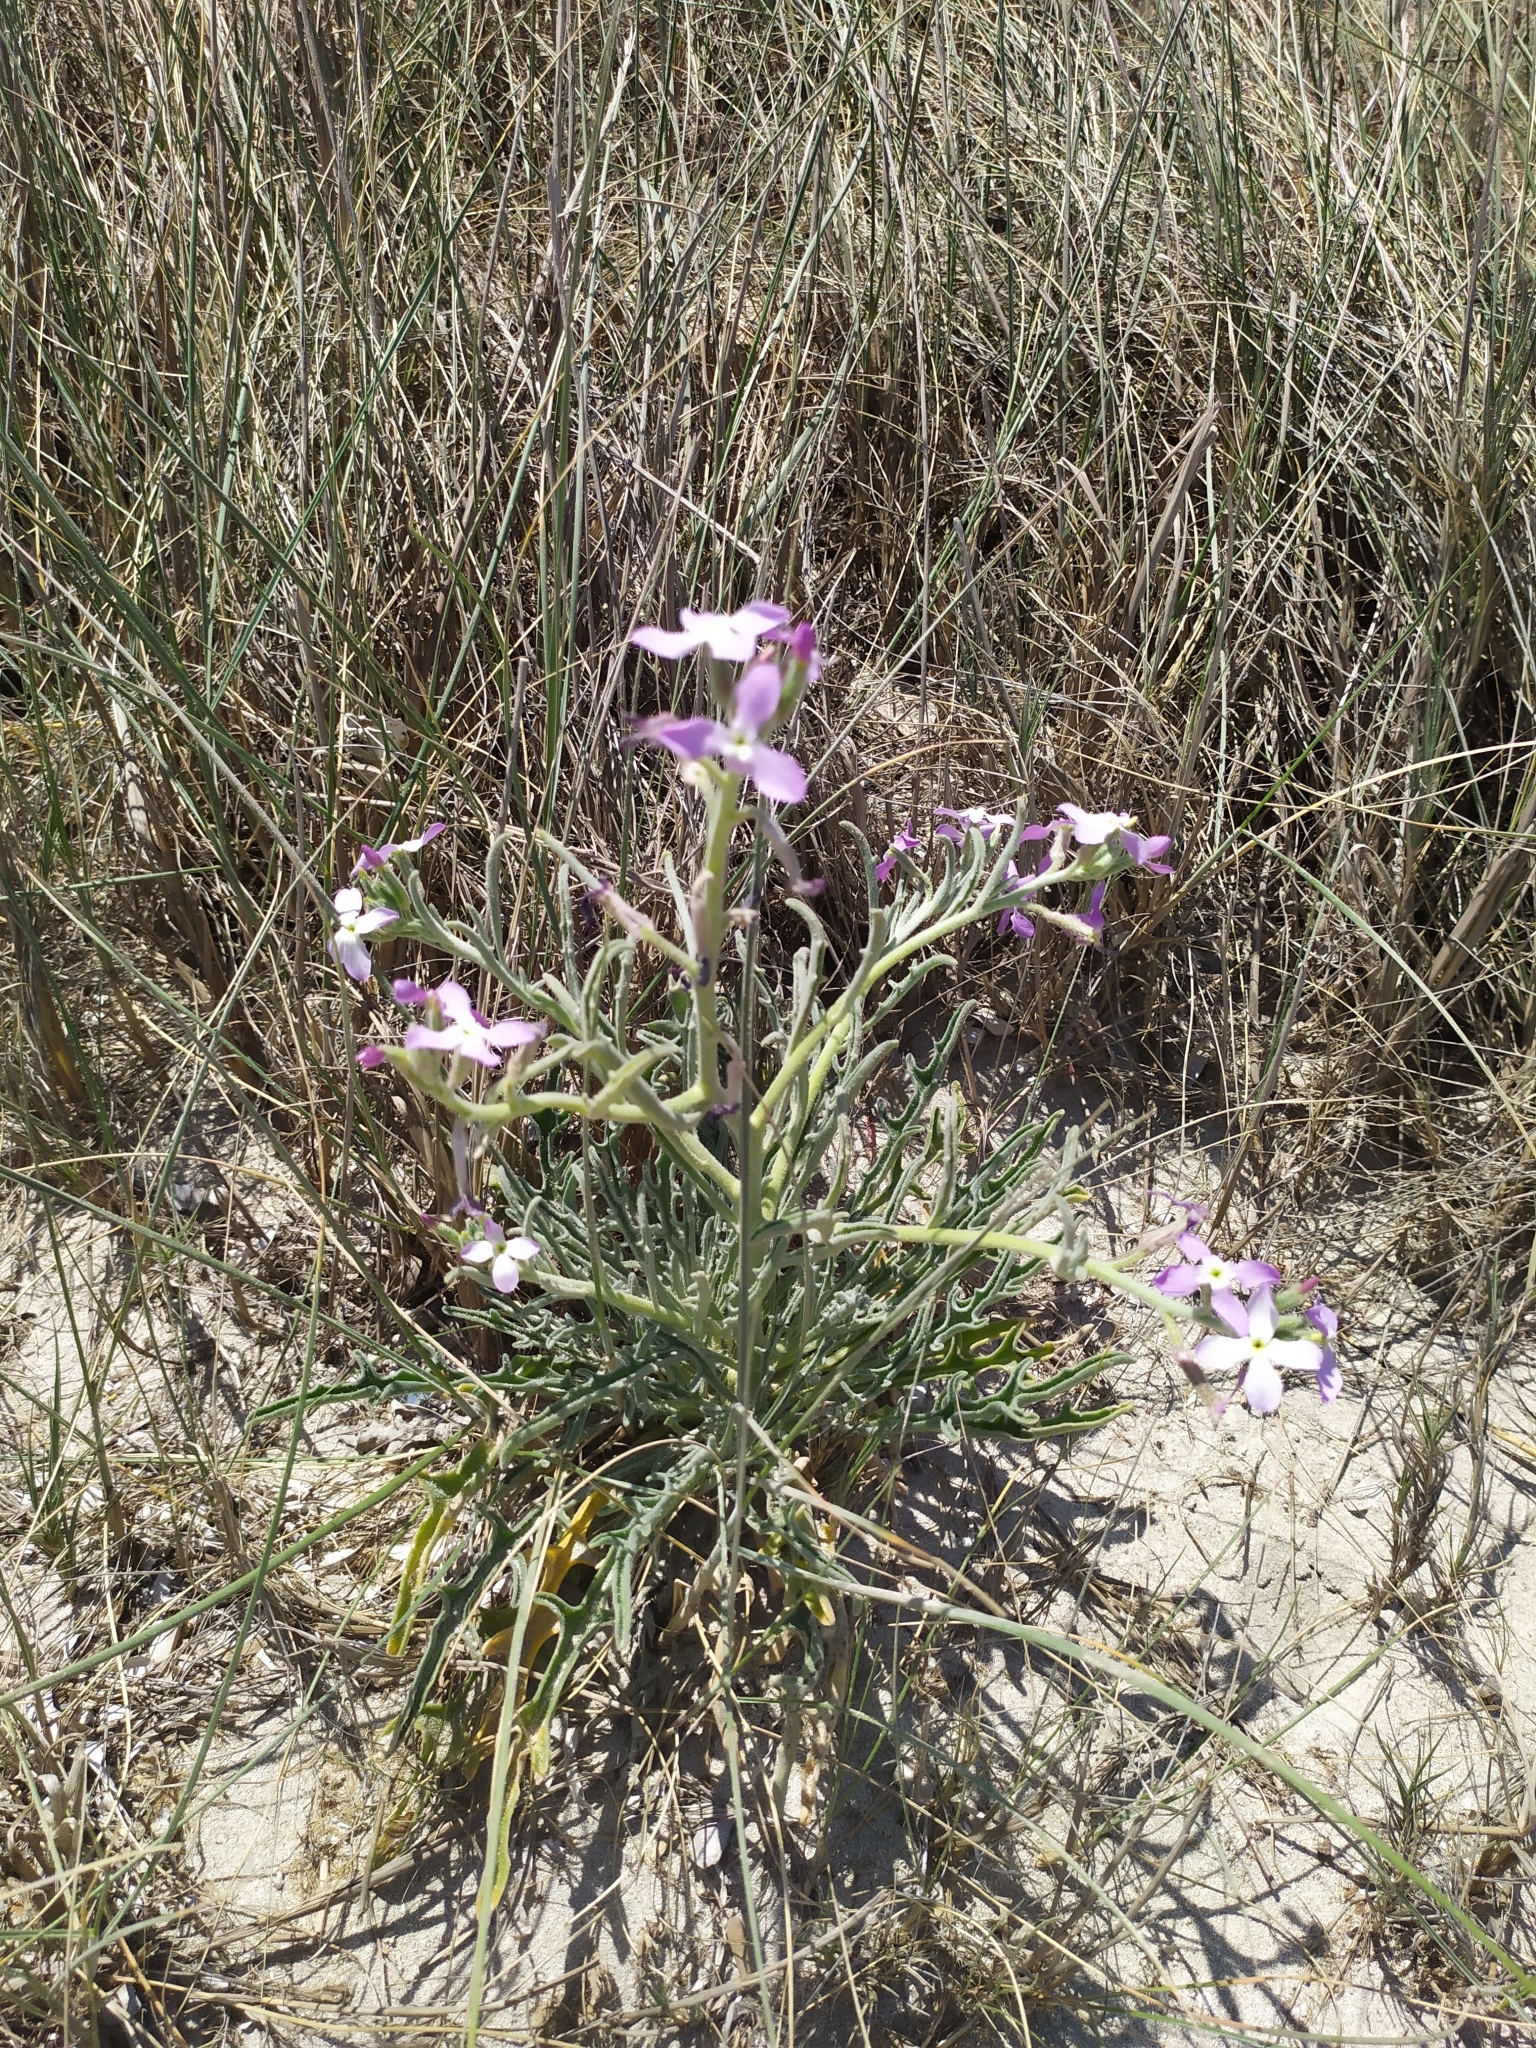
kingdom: Plantae
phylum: Tracheophyta
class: Magnoliopsida
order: Brassicales
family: Brassicaceae
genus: Matthiola
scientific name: Matthiola sinuata
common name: Sea stock
